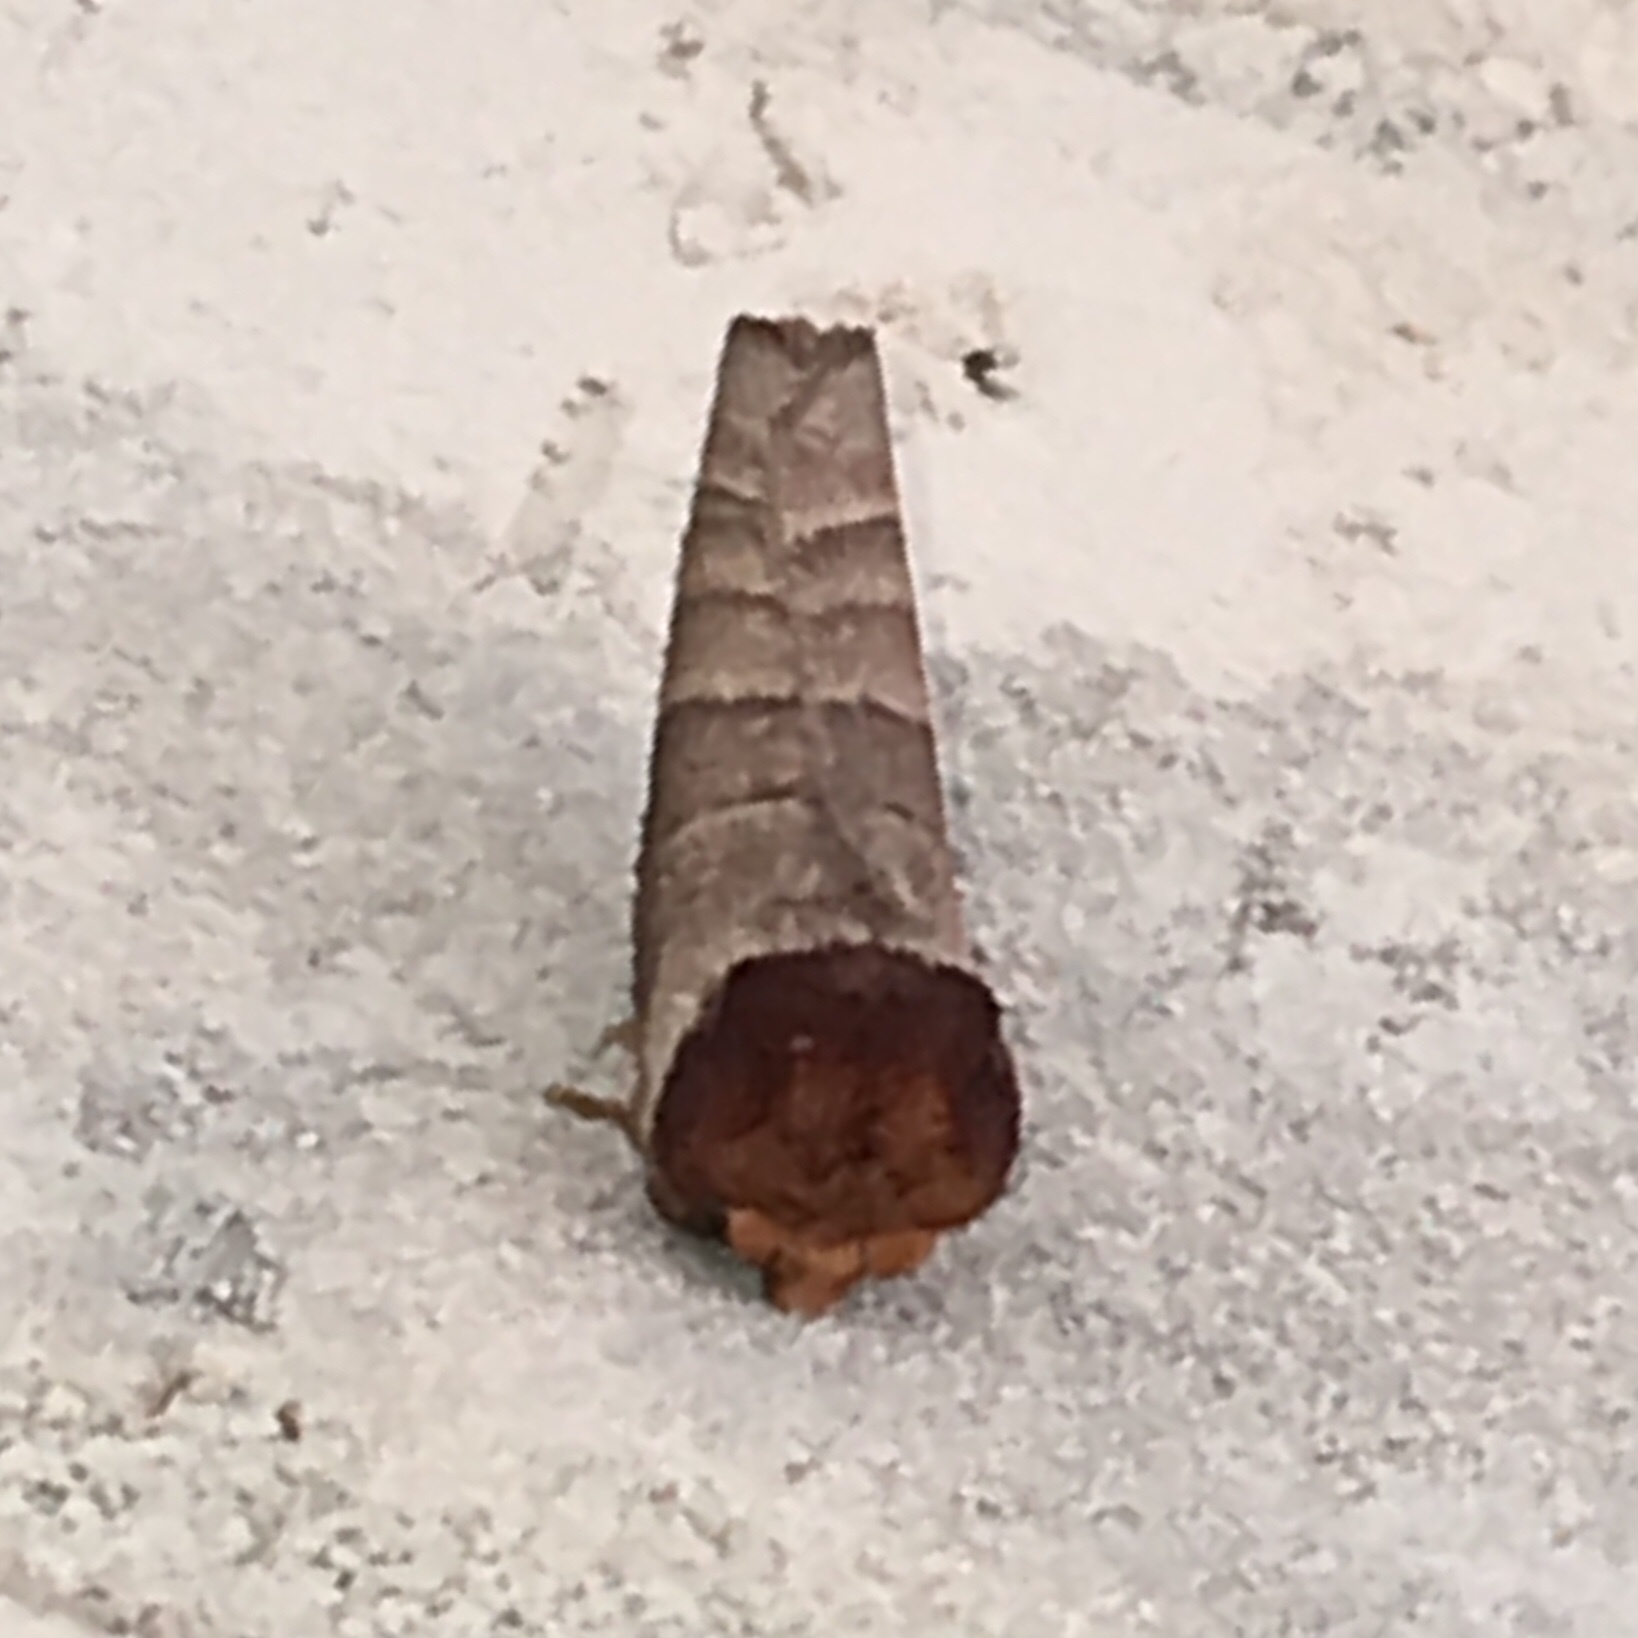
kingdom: Animalia
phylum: Arthropoda
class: Insecta
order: Lepidoptera
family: Notodontidae
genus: Datana
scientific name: Datana integerrima
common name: Walnut caterpillar
